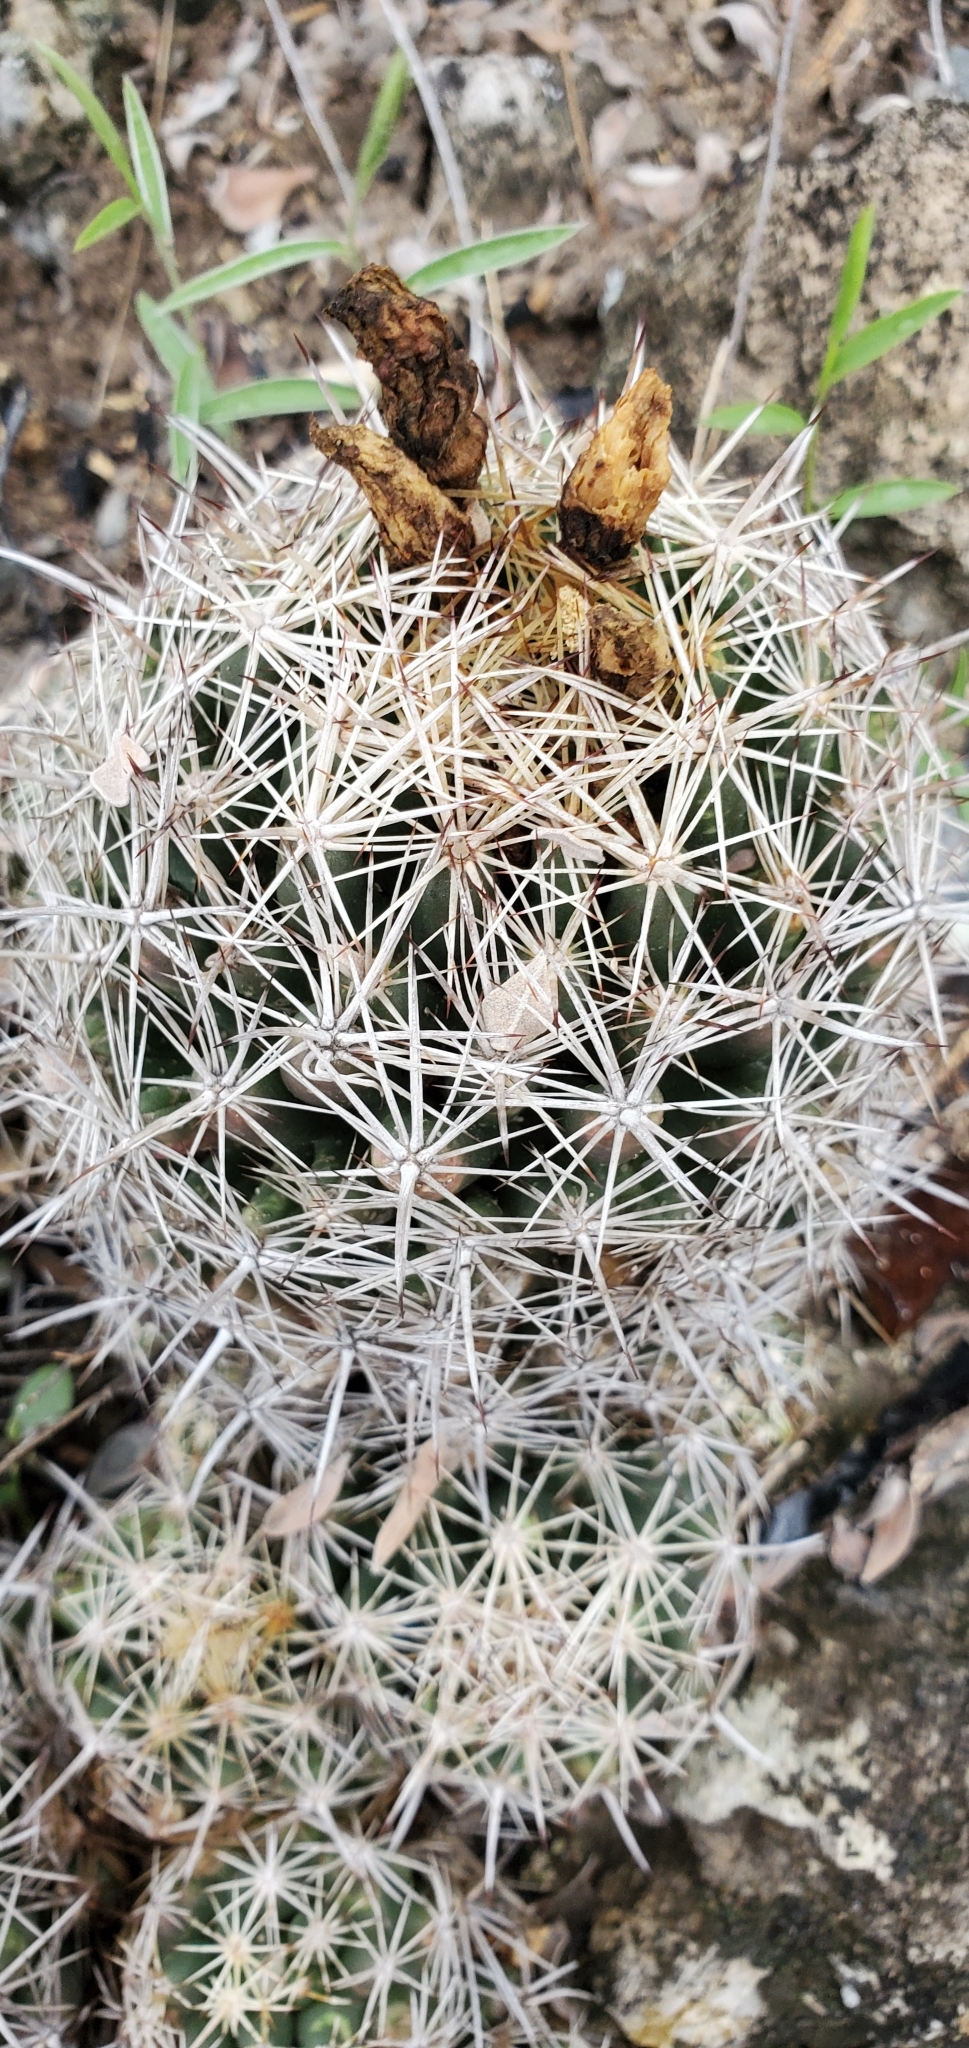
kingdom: Plantae
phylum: Tracheophyta
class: Magnoliopsida
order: Caryophyllales
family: Cactaceae
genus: Coryphantha
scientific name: Coryphantha sulcata
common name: Finger cactus
